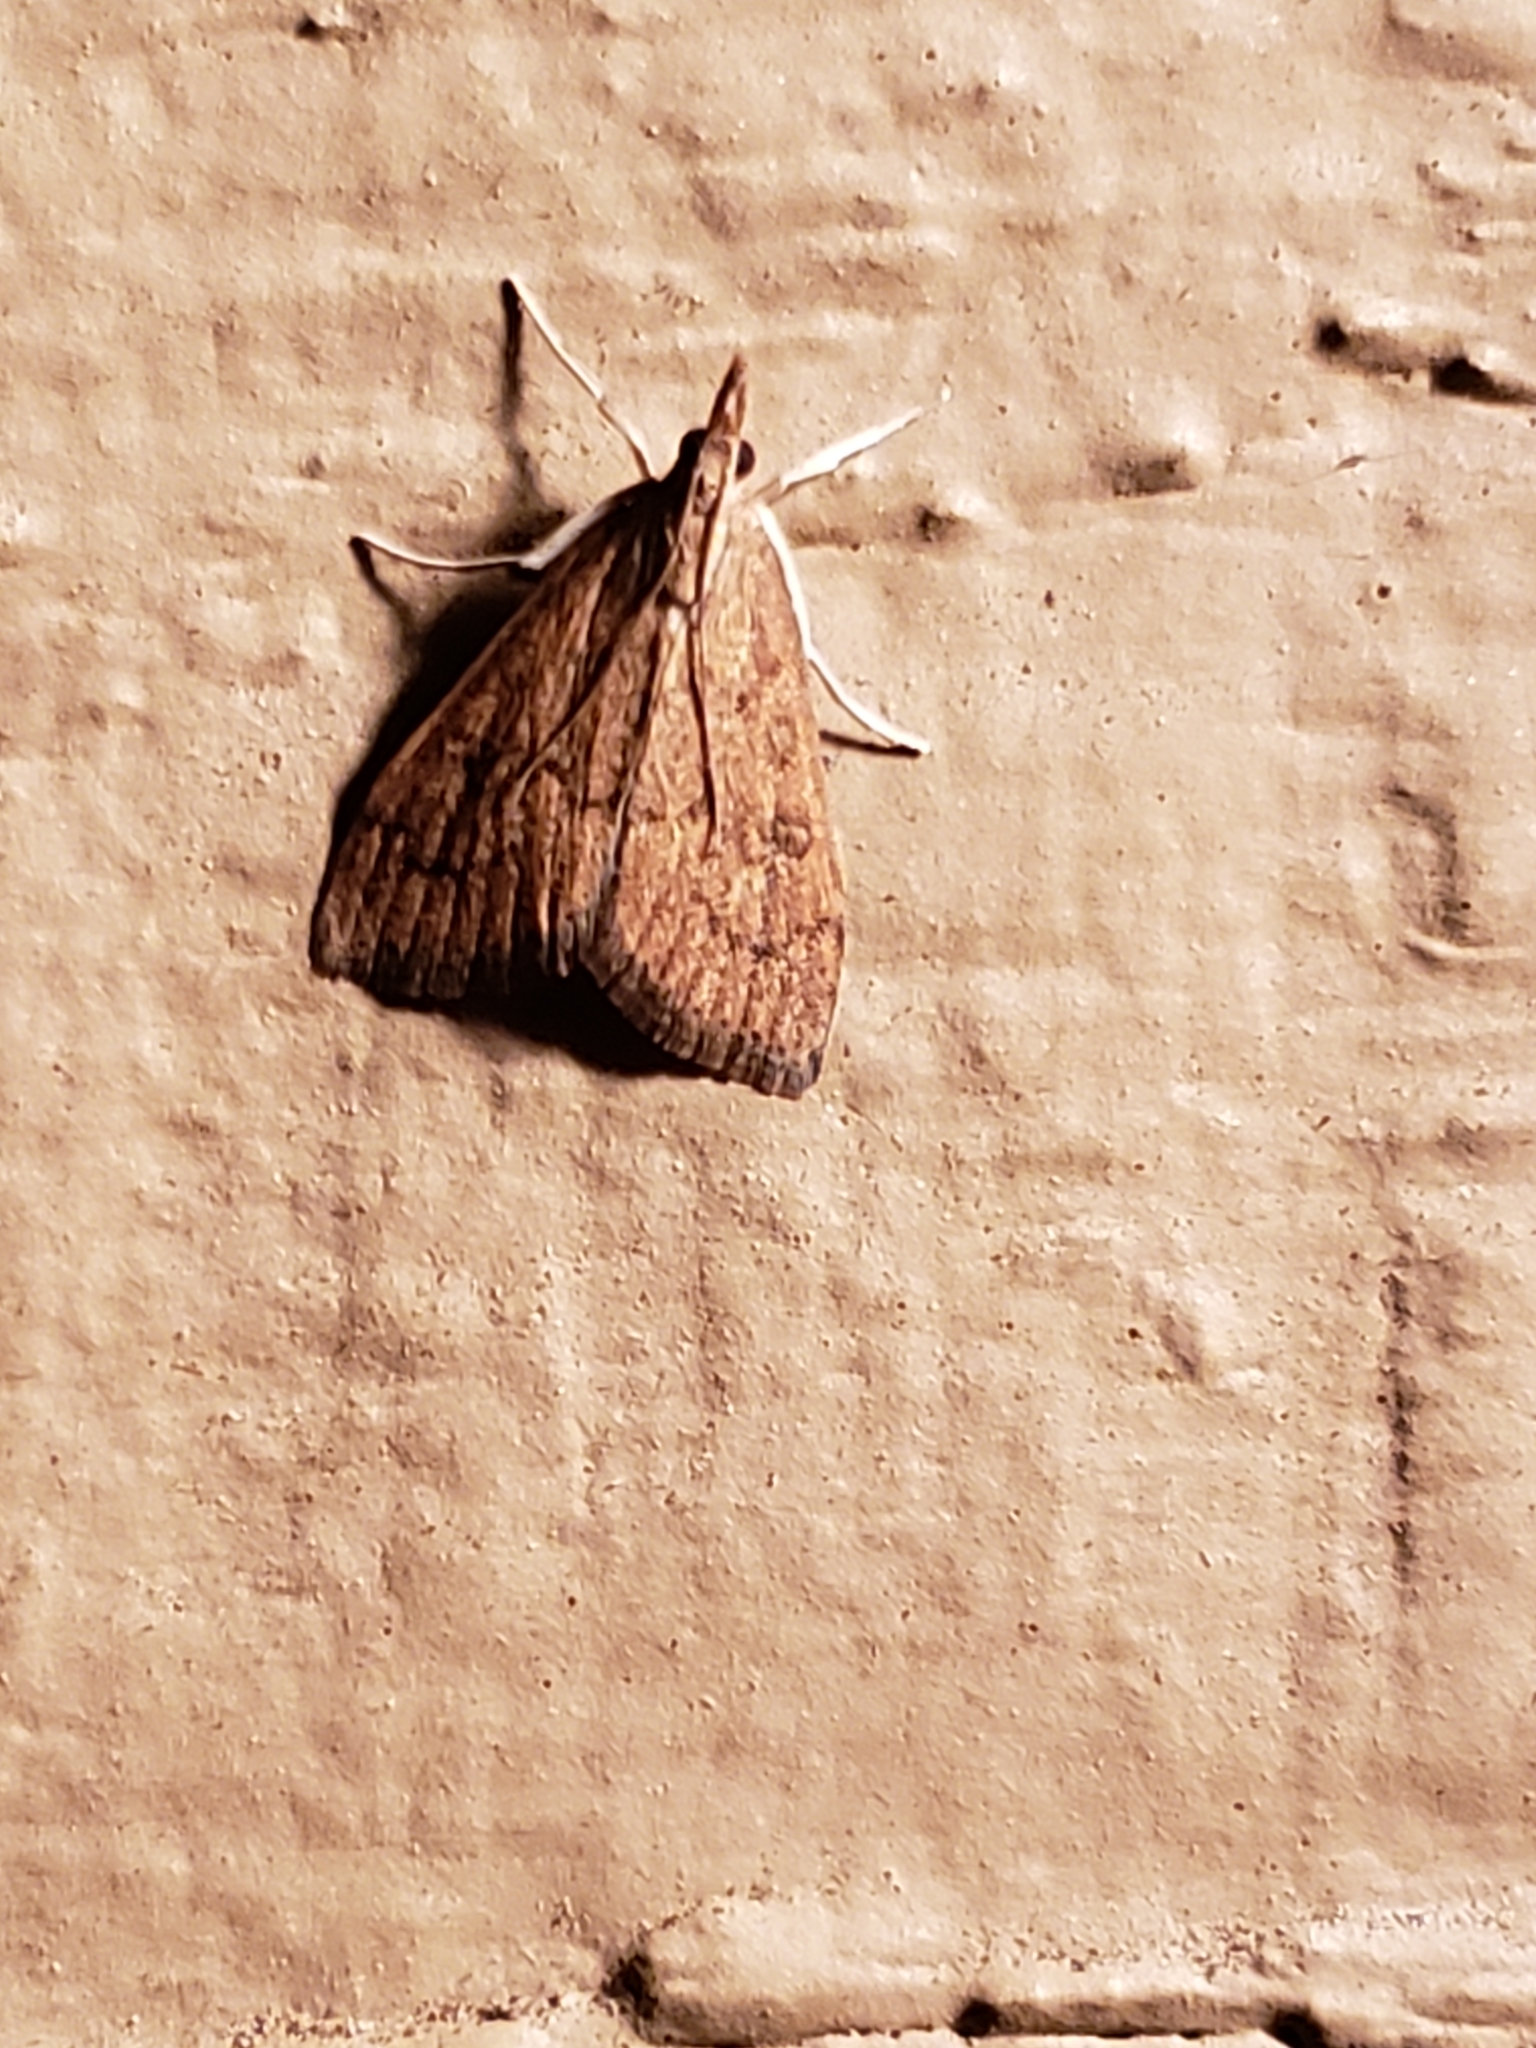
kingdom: Animalia
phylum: Arthropoda
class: Insecta
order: Lepidoptera
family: Crambidae
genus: Udea
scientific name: Udea rubigalis
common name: Celery leaftier moth
